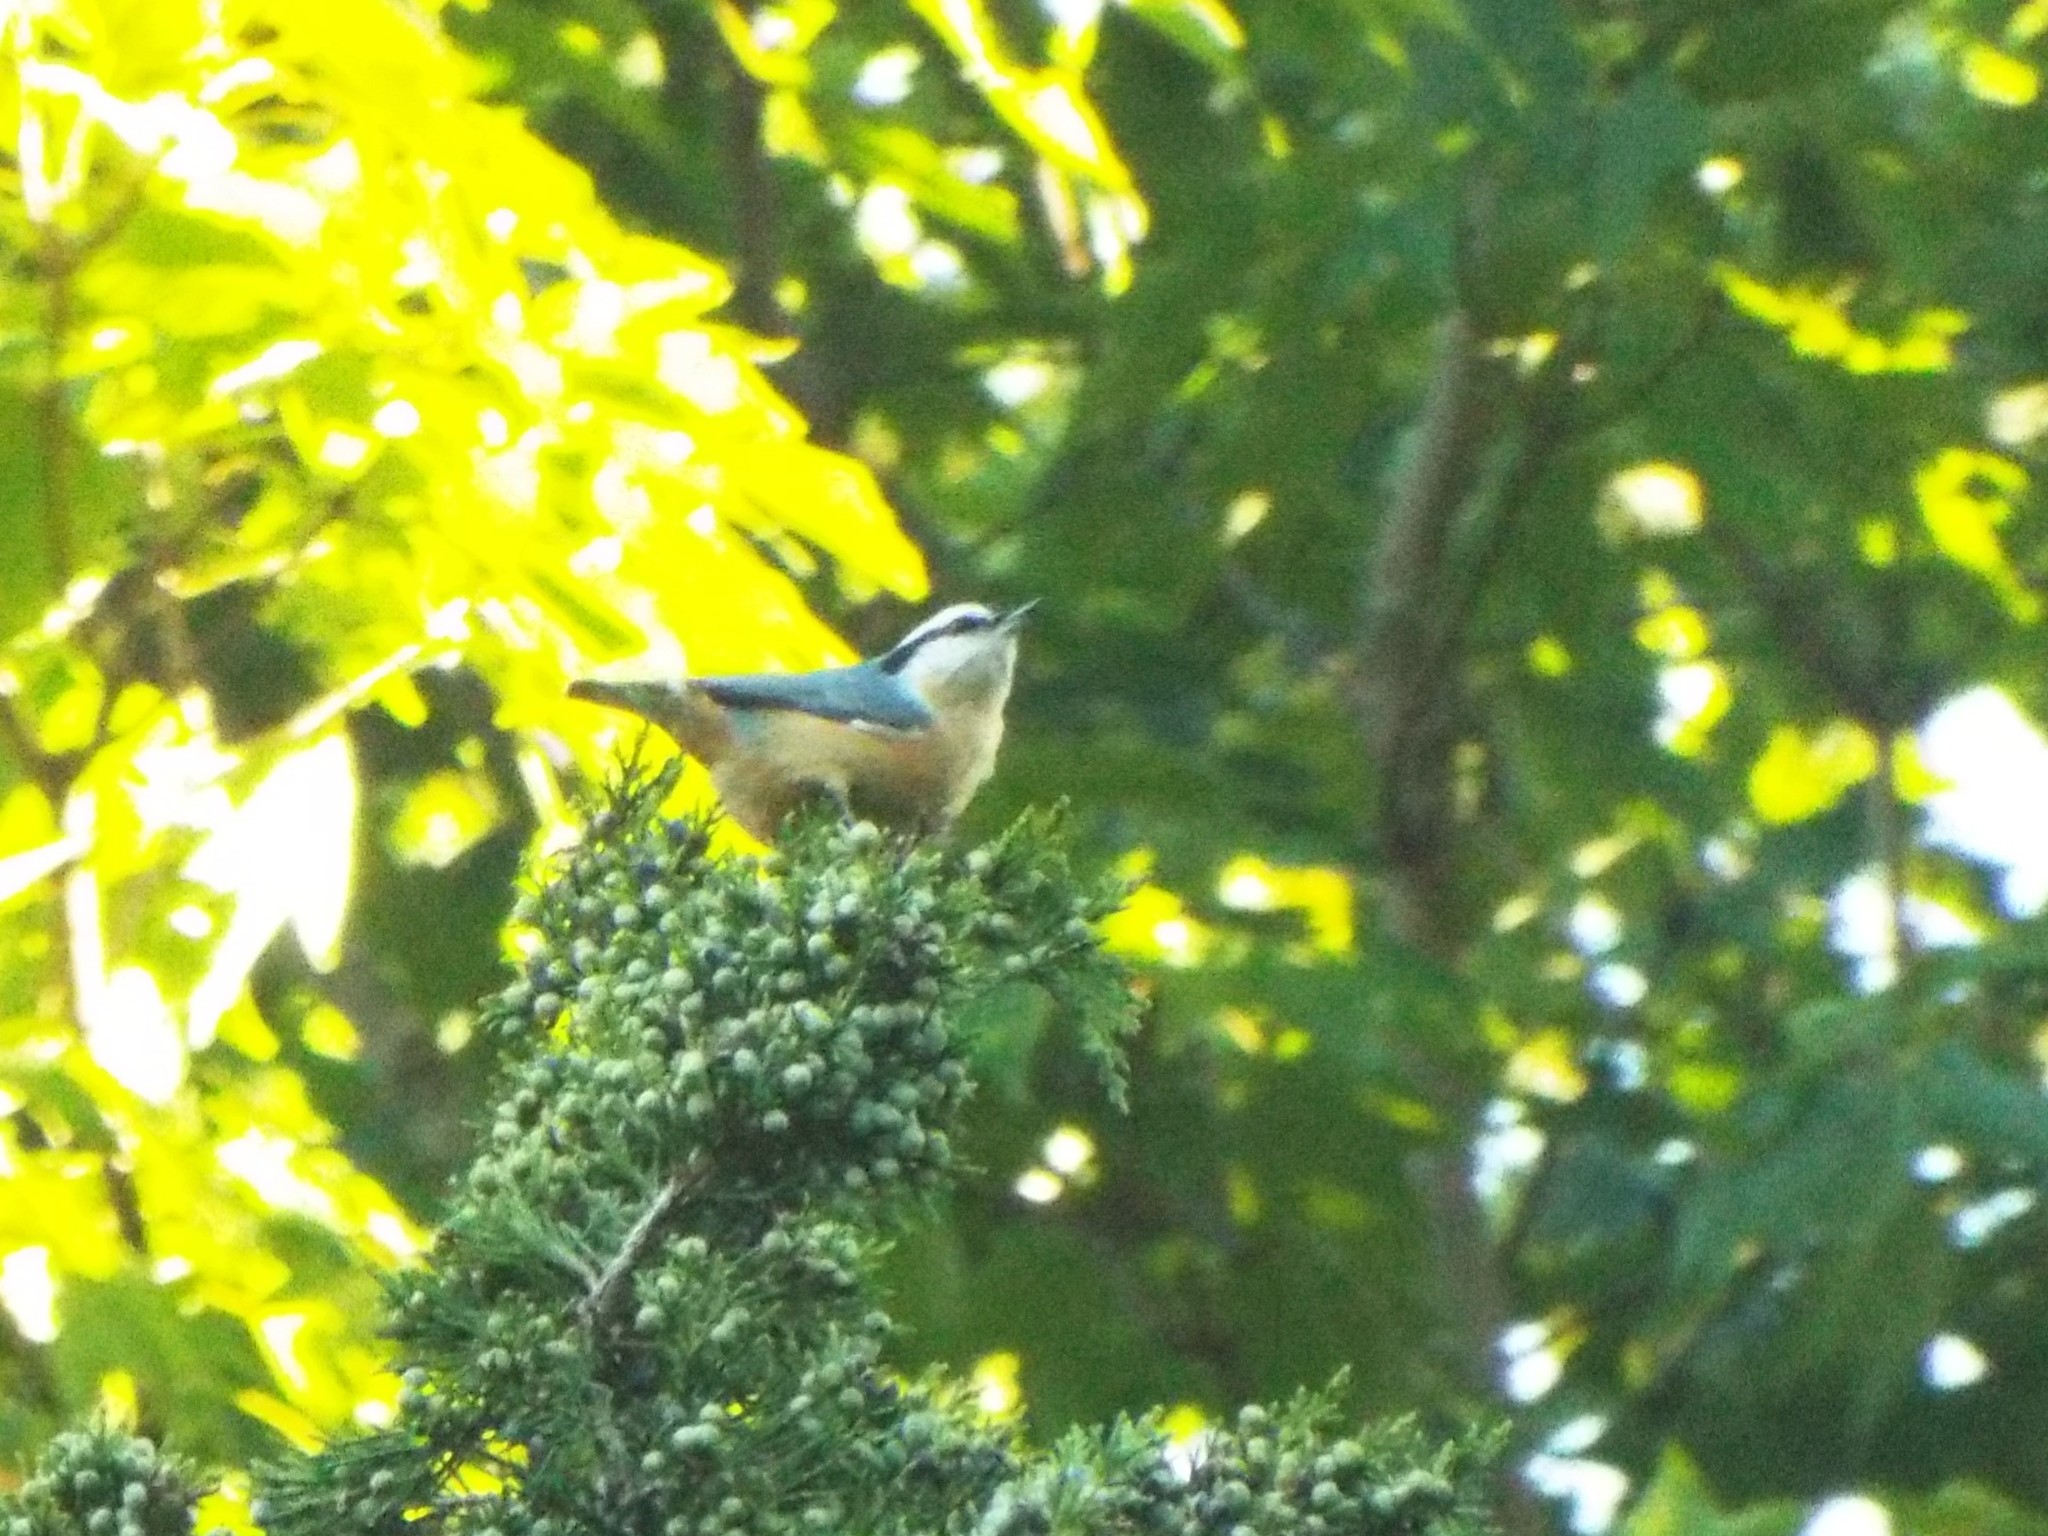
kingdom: Animalia
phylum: Chordata
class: Aves
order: Passeriformes
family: Sittidae
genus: Sitta
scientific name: Sitta canadensis
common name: Red-breasted nuthatch
